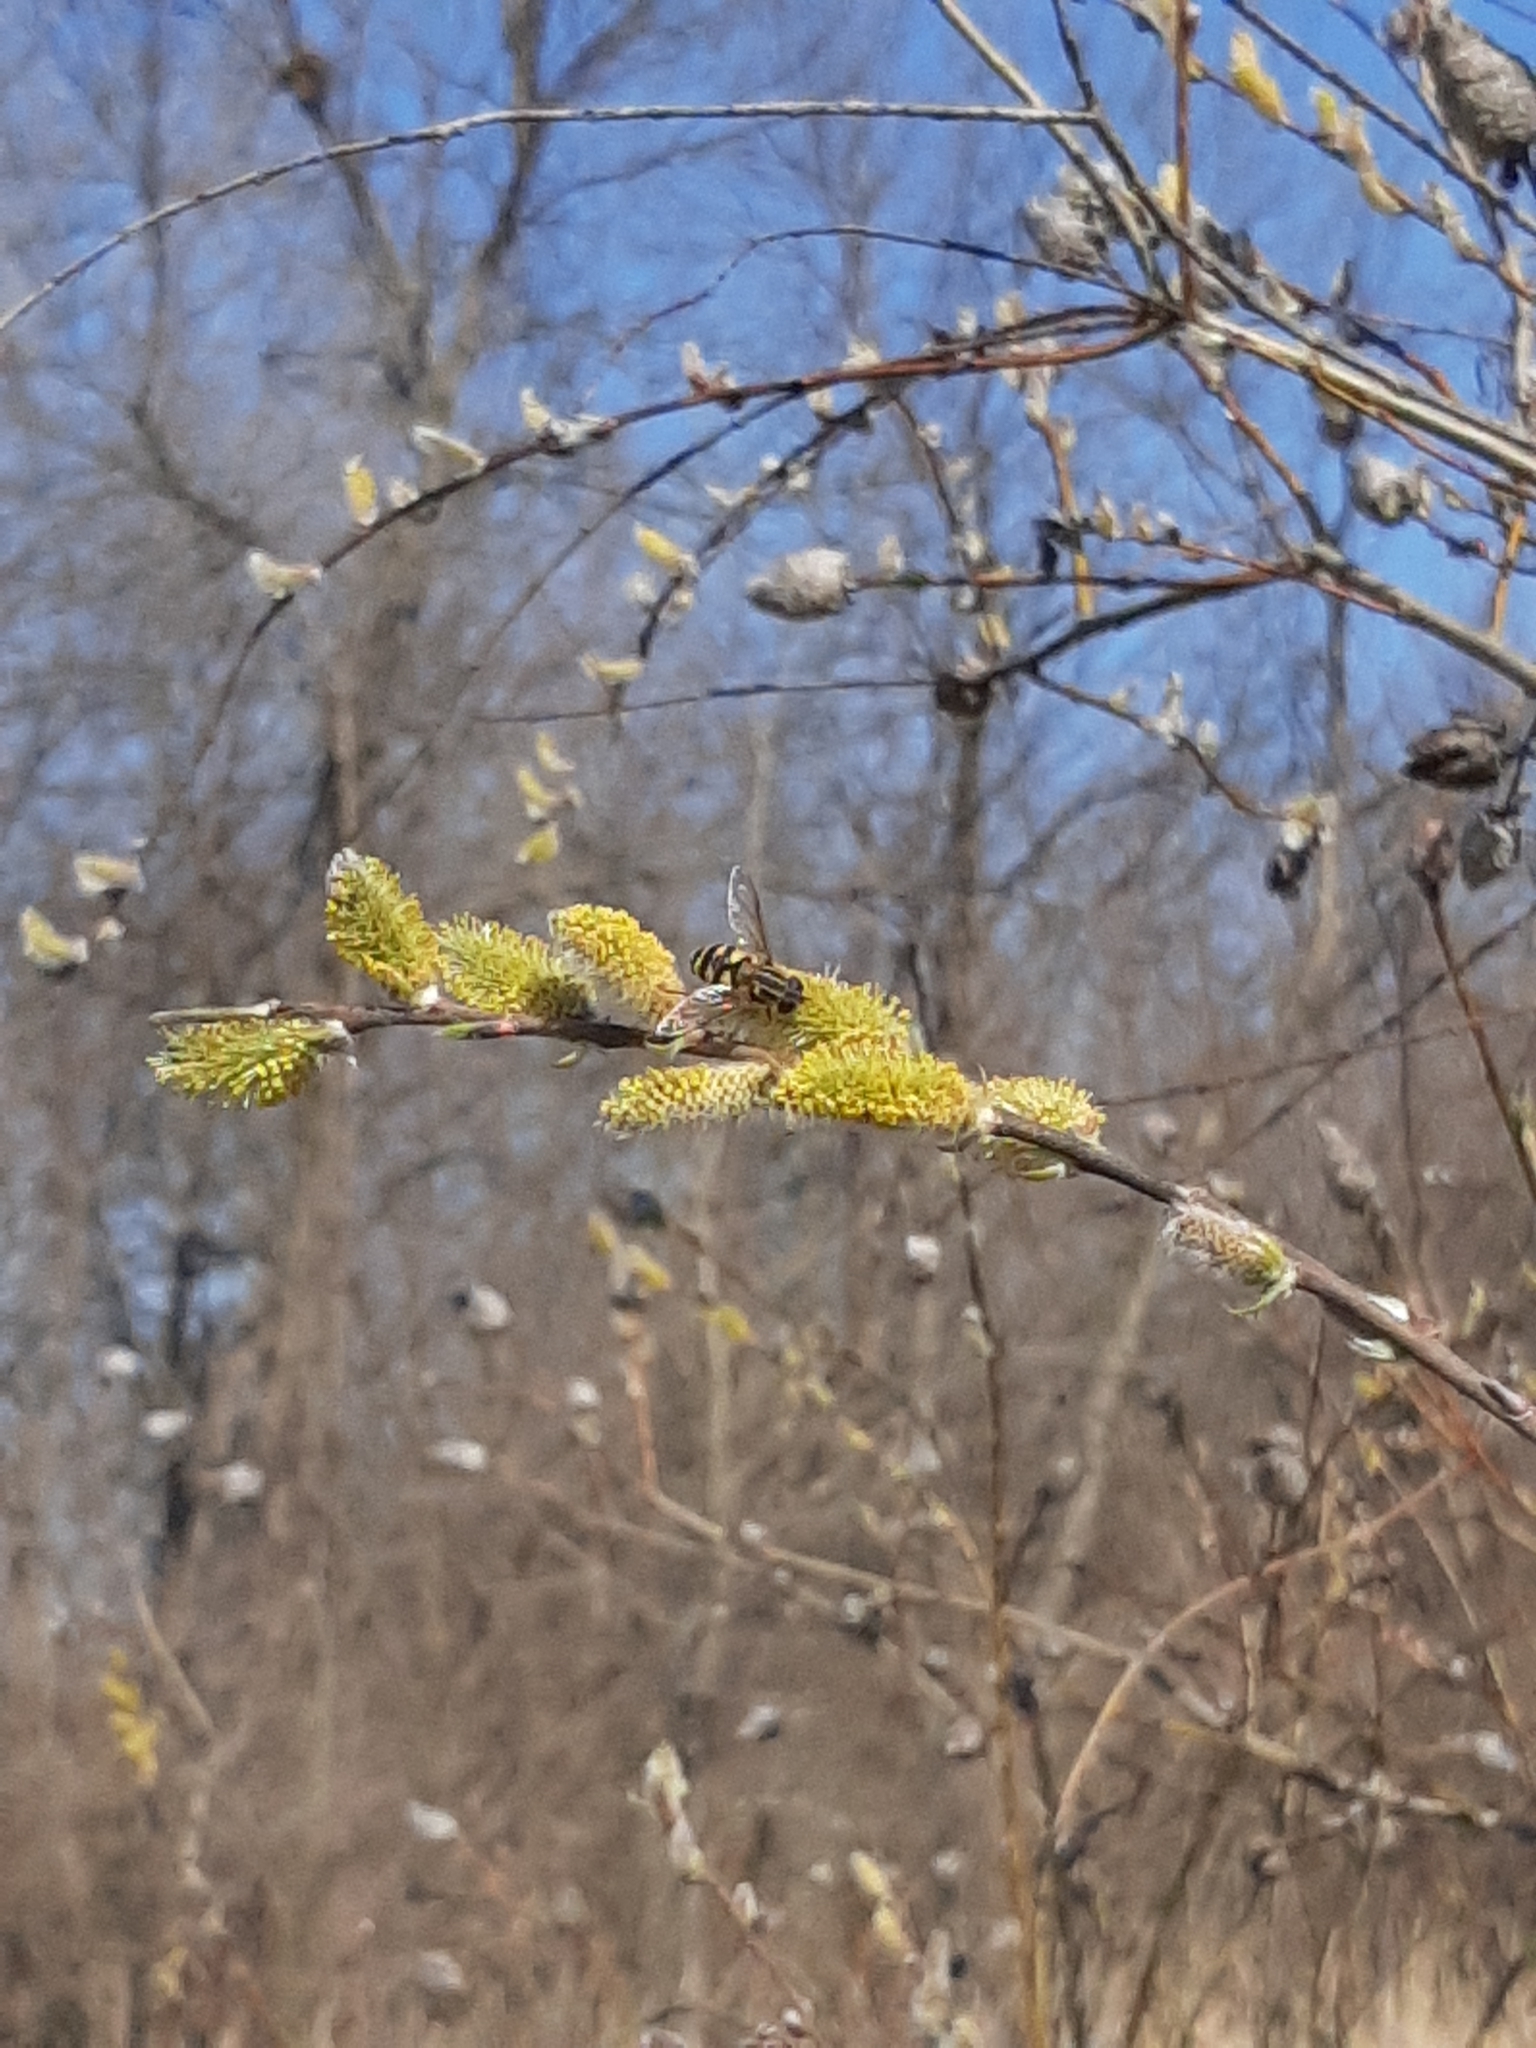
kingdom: Animalia
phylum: Arthropoda
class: Insecta
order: Diptera
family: Syrphidae
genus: Helophilus
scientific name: Helophilus fasciatus
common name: Narrow-headed marsh fly
